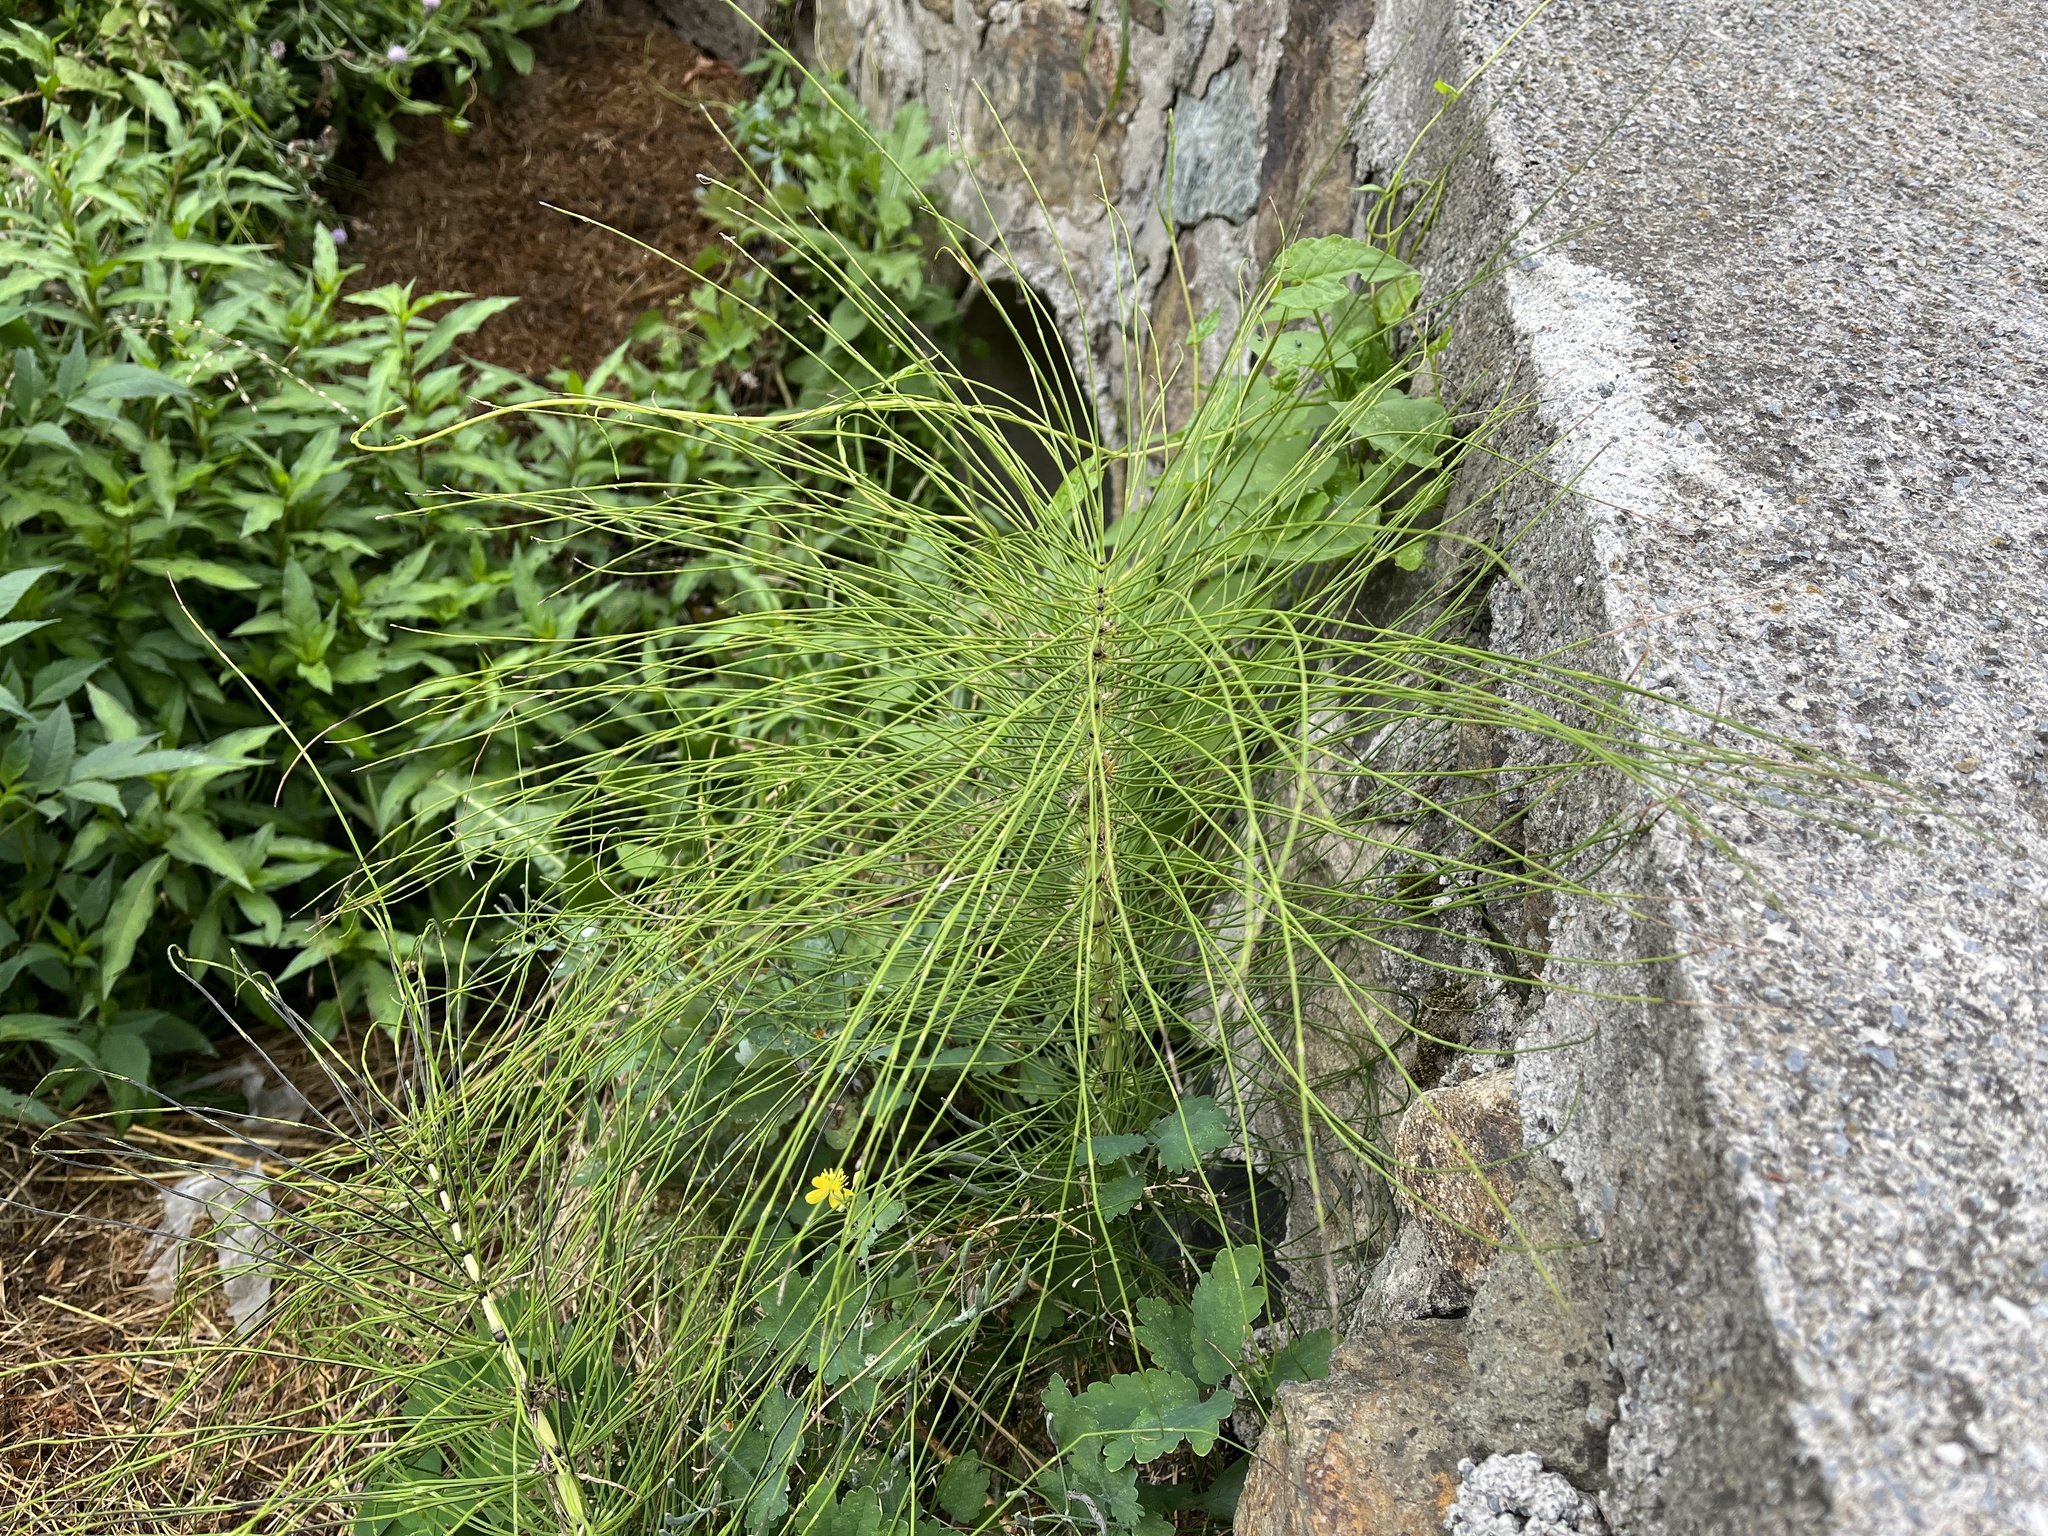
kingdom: Plantae
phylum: Tracheophyta
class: Polypodiopsida
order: Equisetales
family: Equisetaceae
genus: Equisetum
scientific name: Equisetum telmateia
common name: Great horsetail
